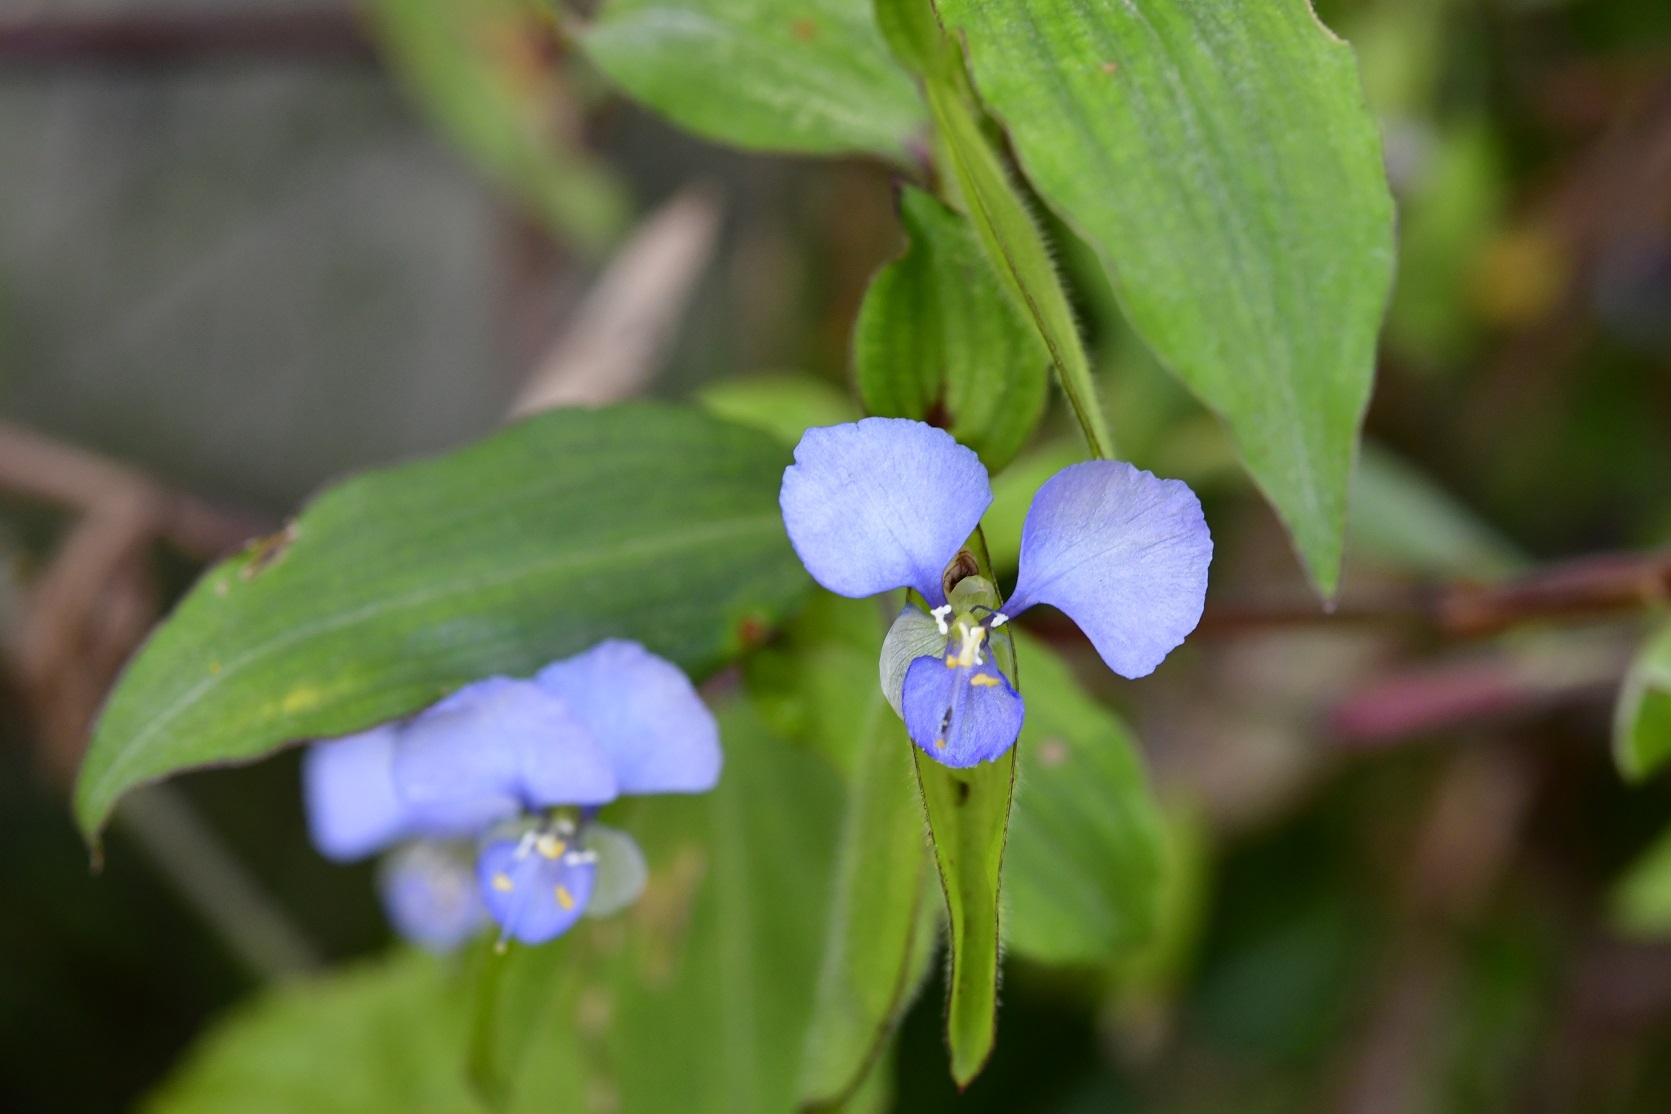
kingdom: Plantae
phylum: Tracheophyta
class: Liliopsida
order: Commelinales
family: Commelinaceae
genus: Commelina
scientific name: Commelina diffusa
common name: Climbing dayflower
